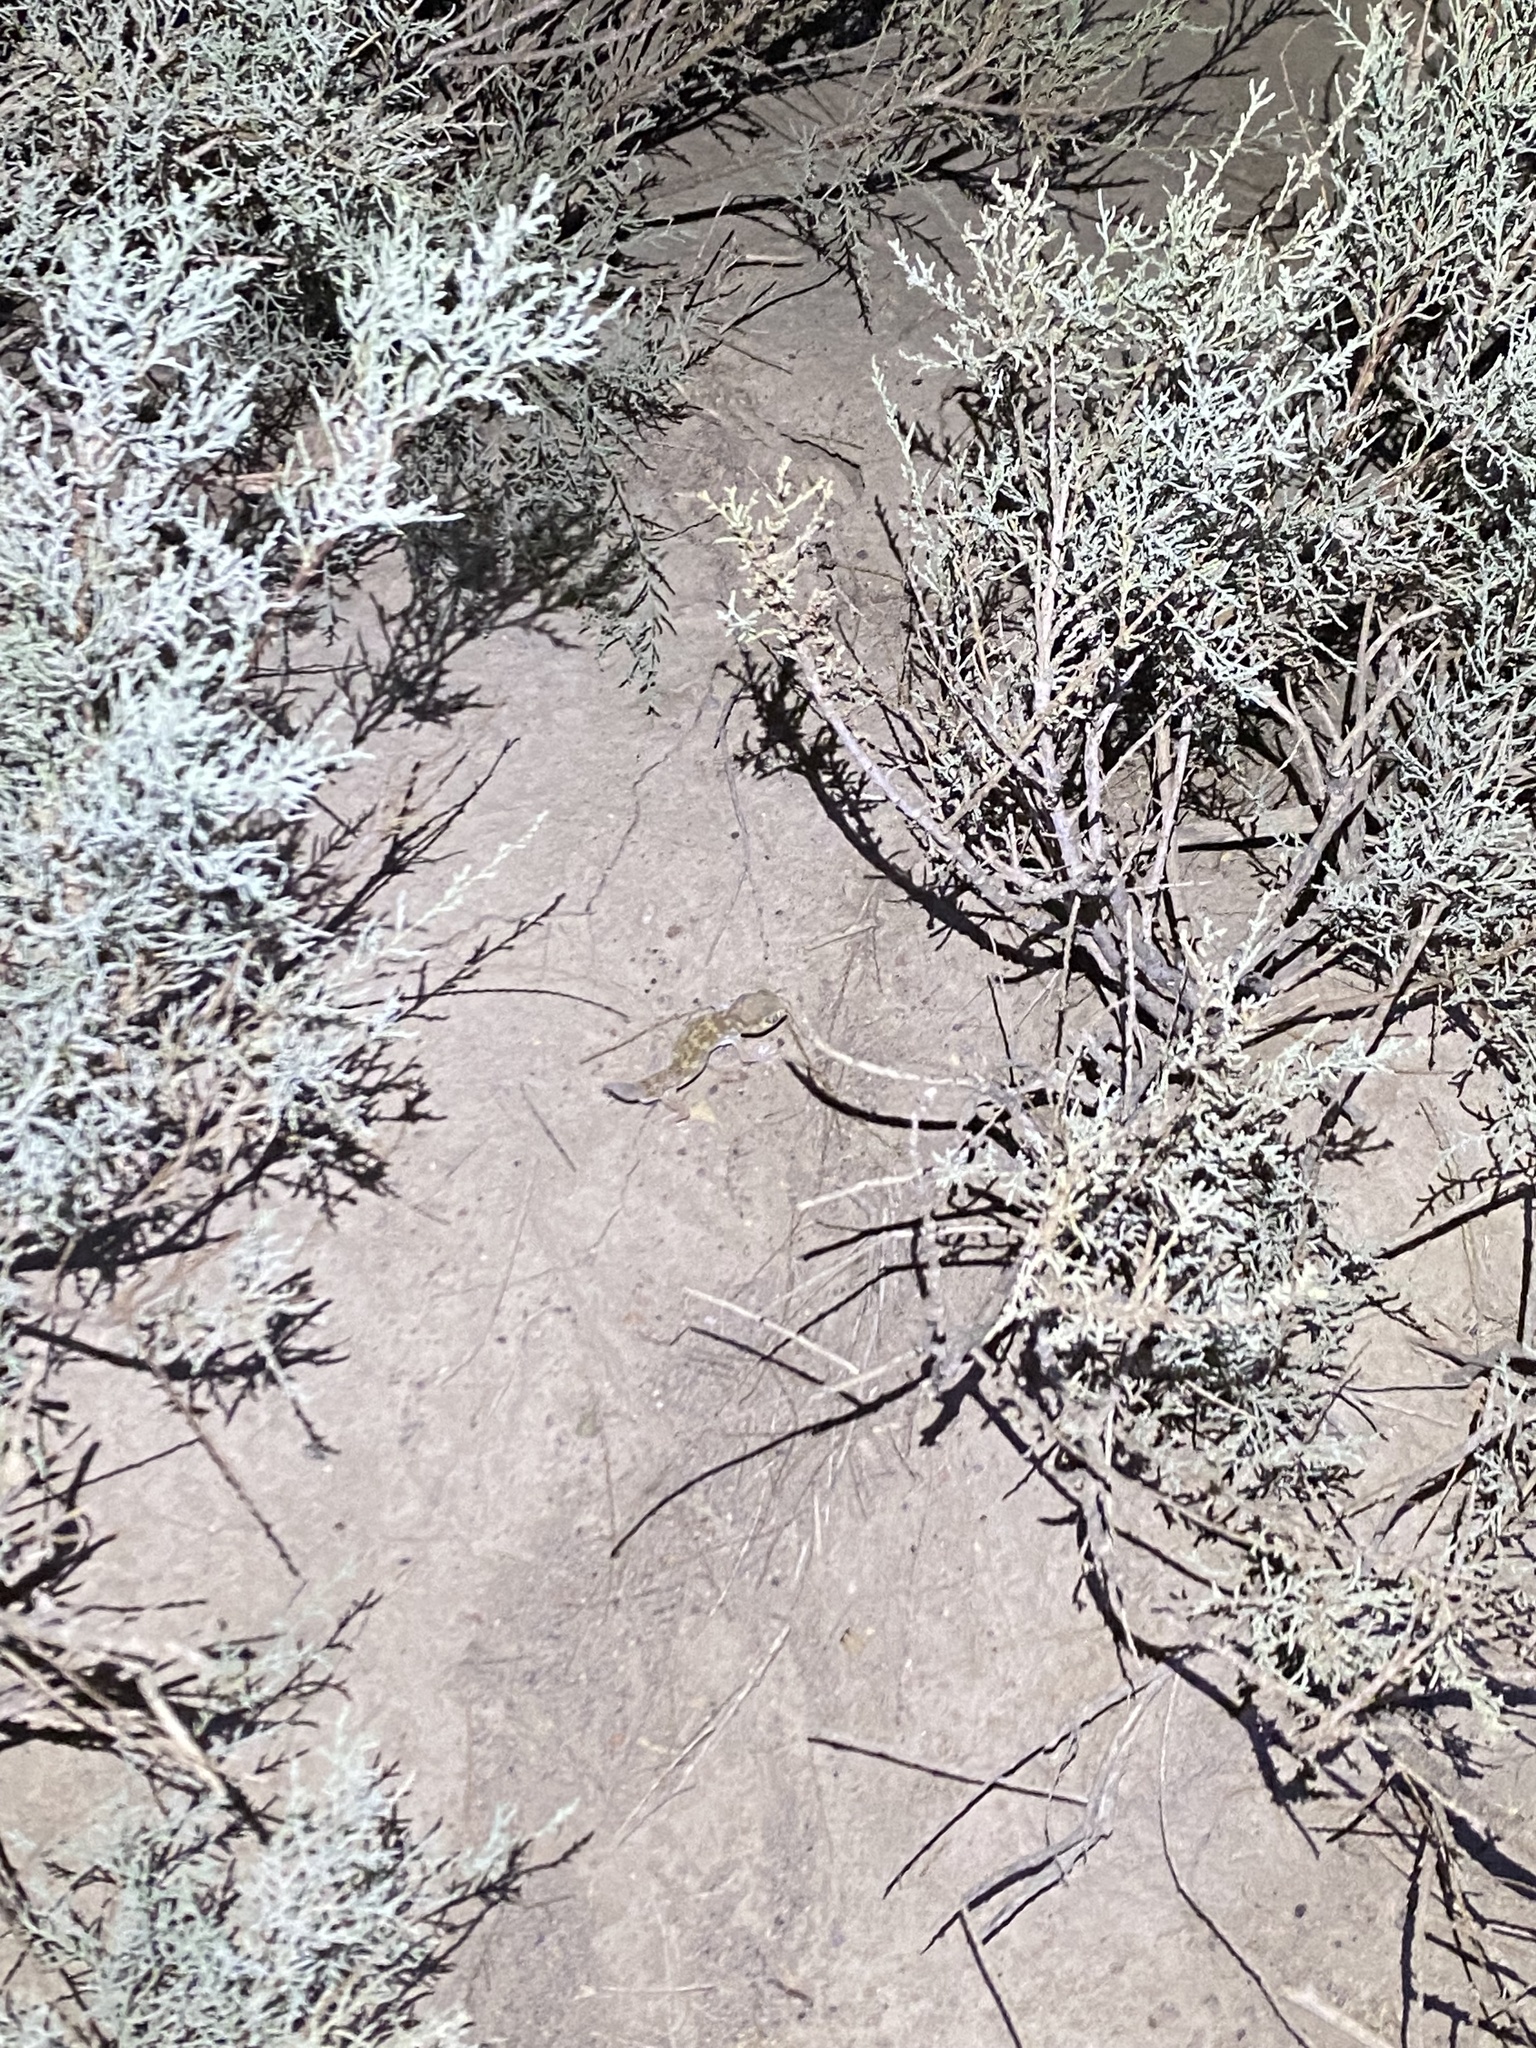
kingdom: Animalia
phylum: Chordata
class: Squamata
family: Sphaerodactylidae
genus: Teratoscincus
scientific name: Teratoscincus bedriagai
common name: Bedriaga's plate-tailed gecko
